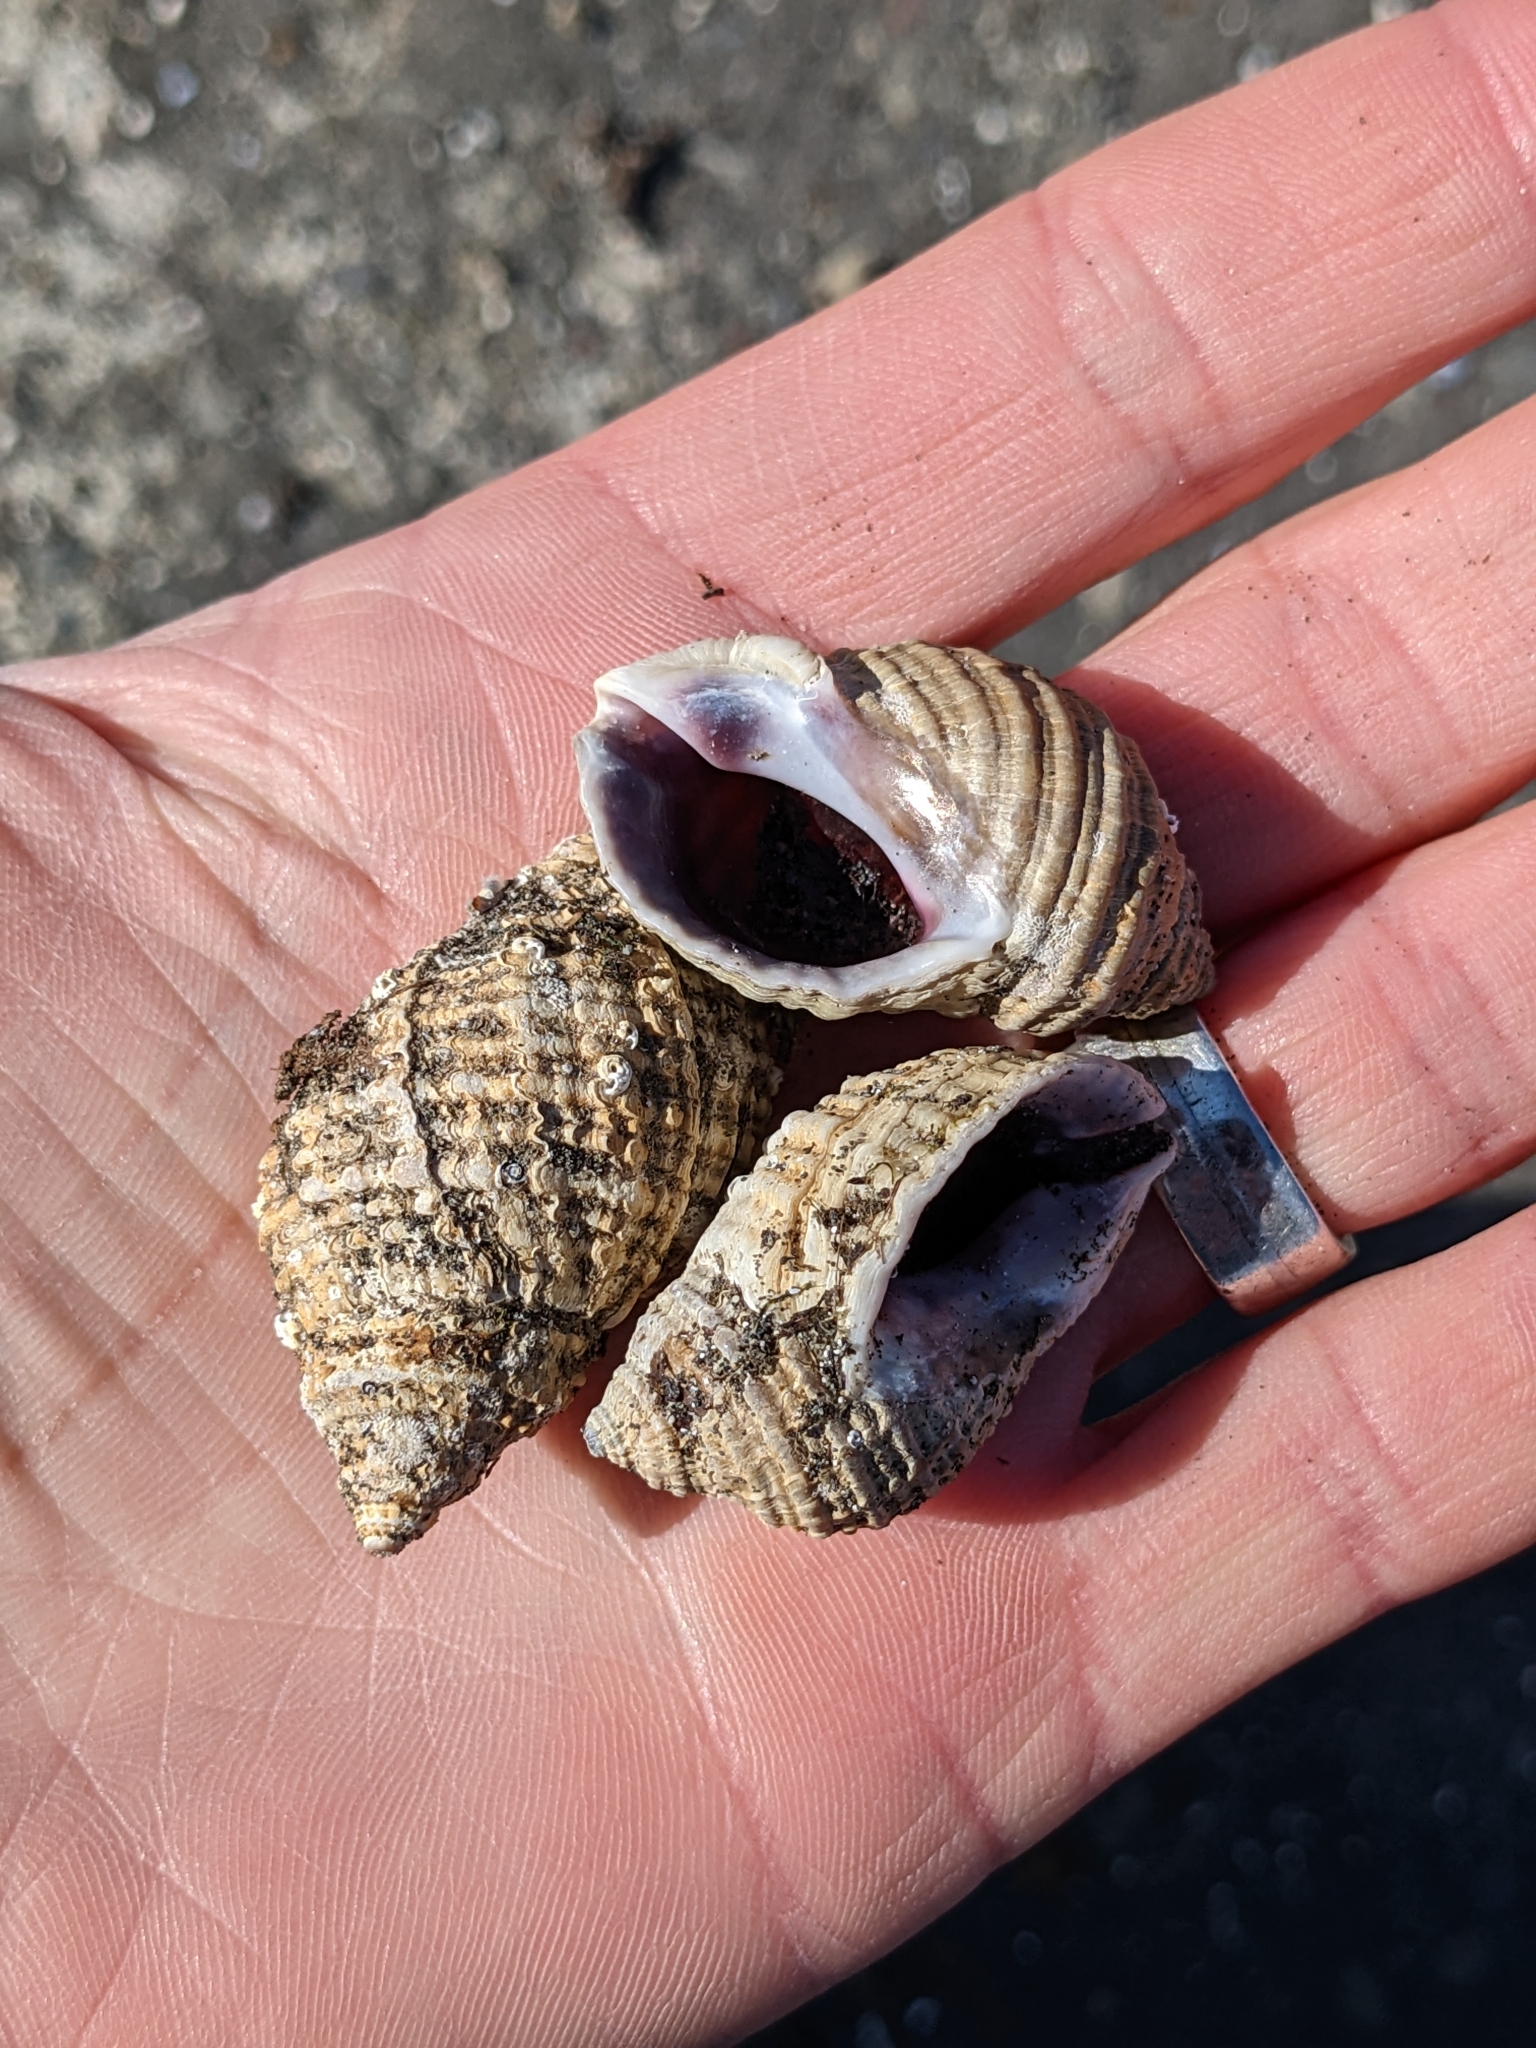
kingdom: Animalia
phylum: Mollusca
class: Gastropoda
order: Neogastropoda
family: Muricidae
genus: Nucella
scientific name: Nucella lapillus
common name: Dog whelk
